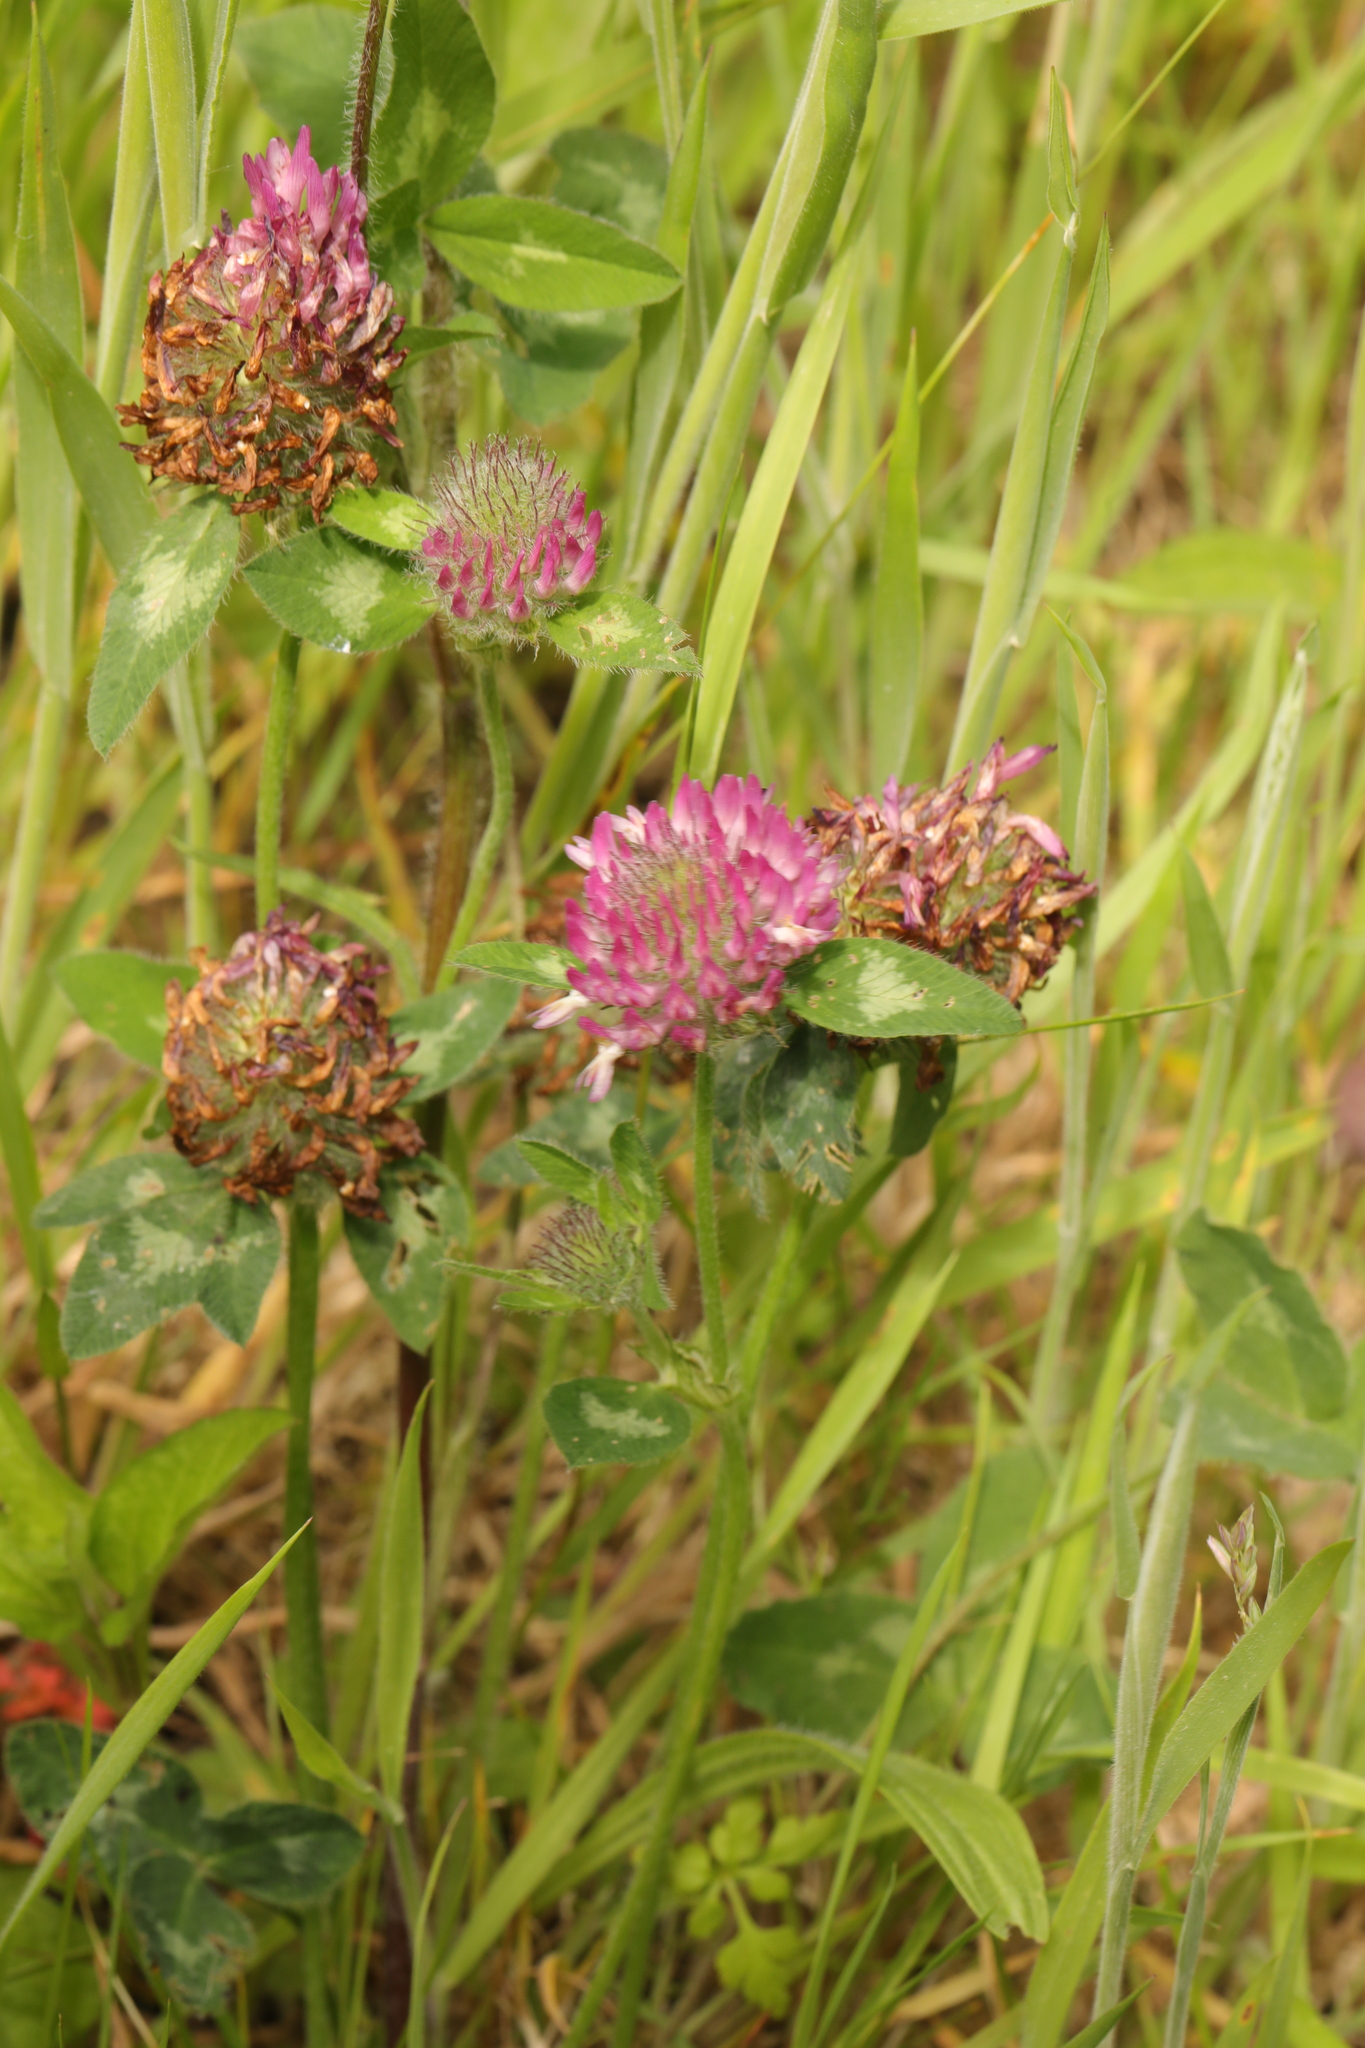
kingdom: Plantae
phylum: Tracheophyta
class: Magnoliopsida
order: Fabales
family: Fabaceae
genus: Trifolium
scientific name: Trifolium pratense
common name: Red clover
